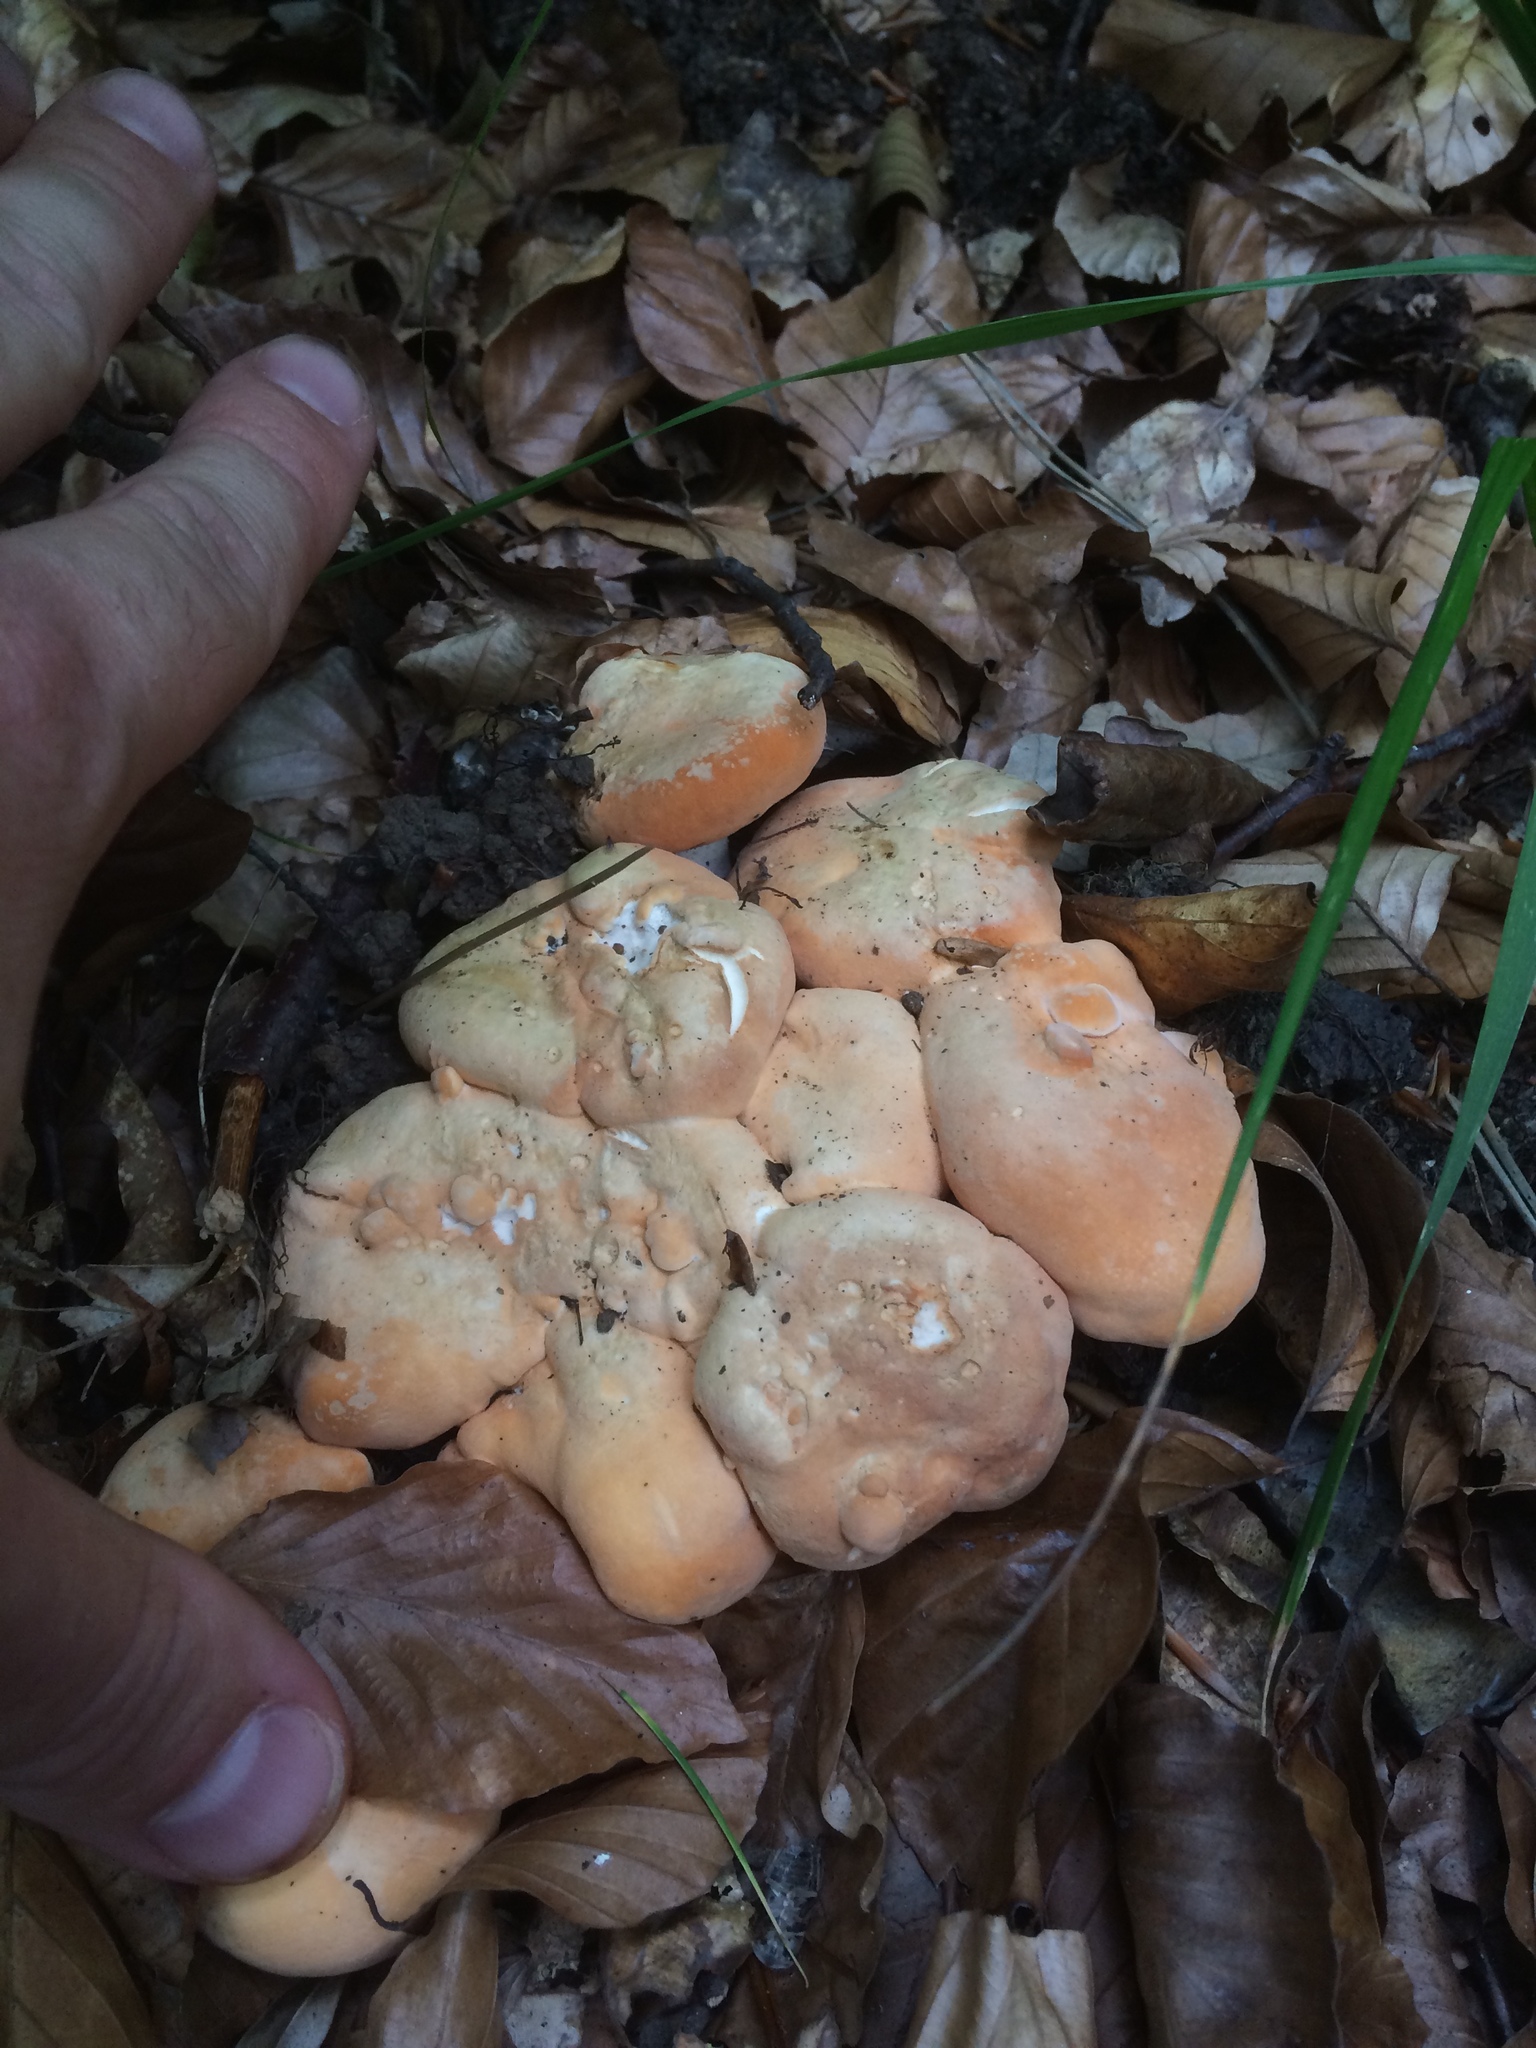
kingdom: Fungi
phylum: Basidiomycota
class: Agaricomycetes
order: Cantharellales
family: Hydnaceae
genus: Hydnum
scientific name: Hydnum repandum
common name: Wood hedgehog
